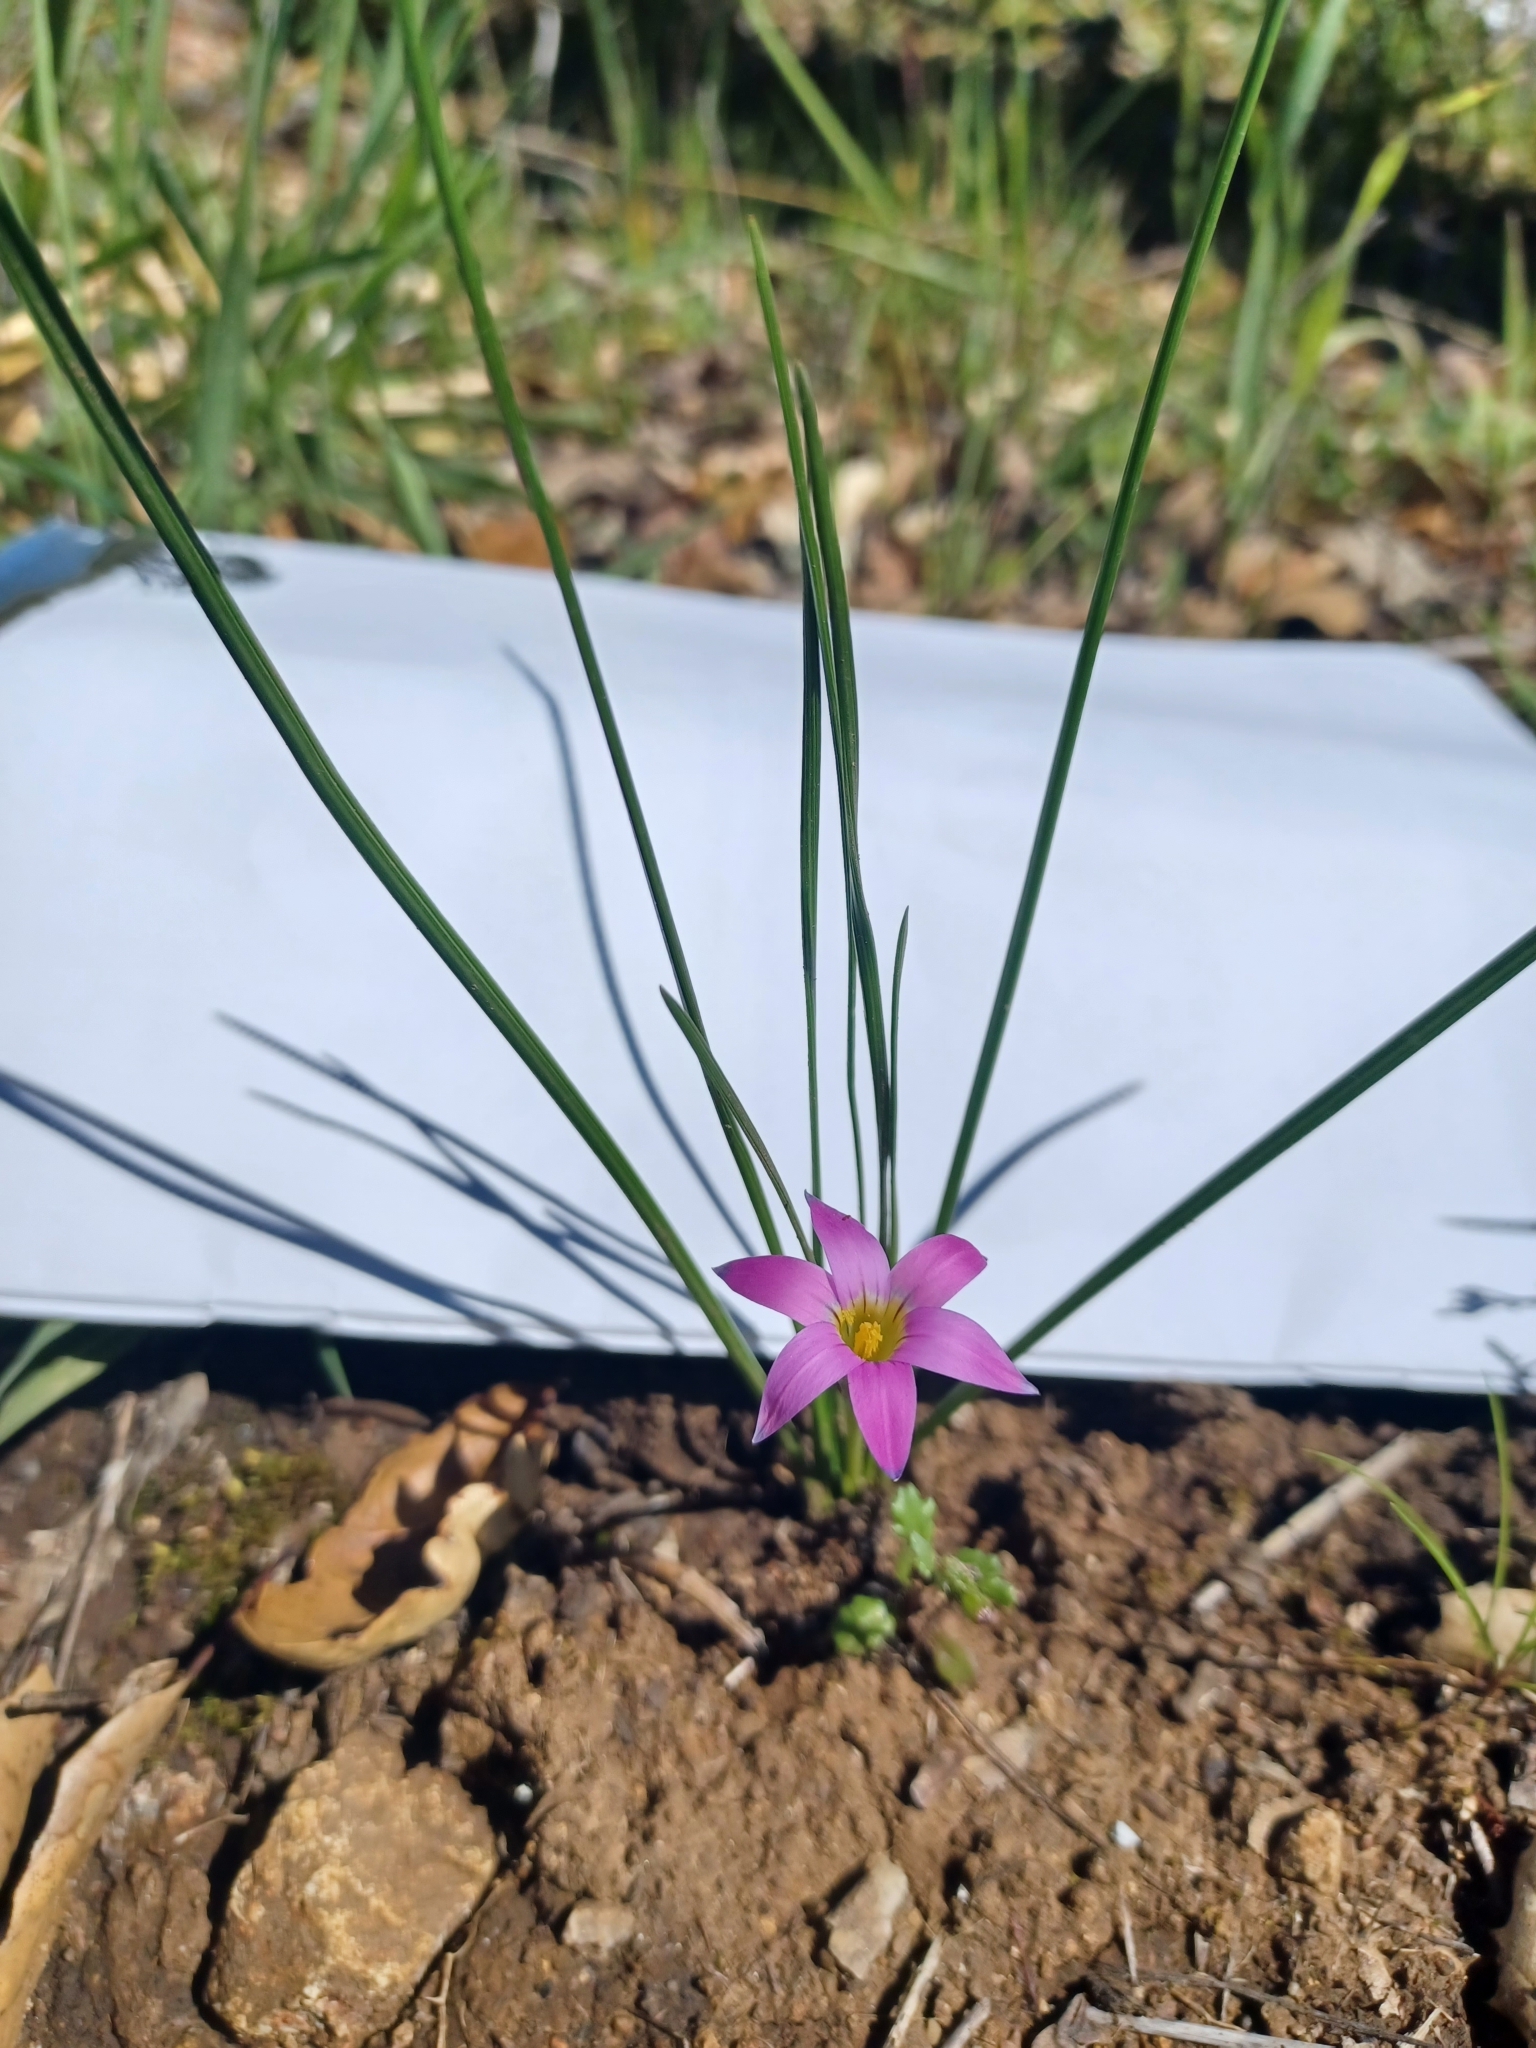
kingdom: Plantae
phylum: Tracheophyta
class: Liliopsida
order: Asparagales
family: Iridaceae
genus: Romulea
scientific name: Romulea rosea
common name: Oniongrass
